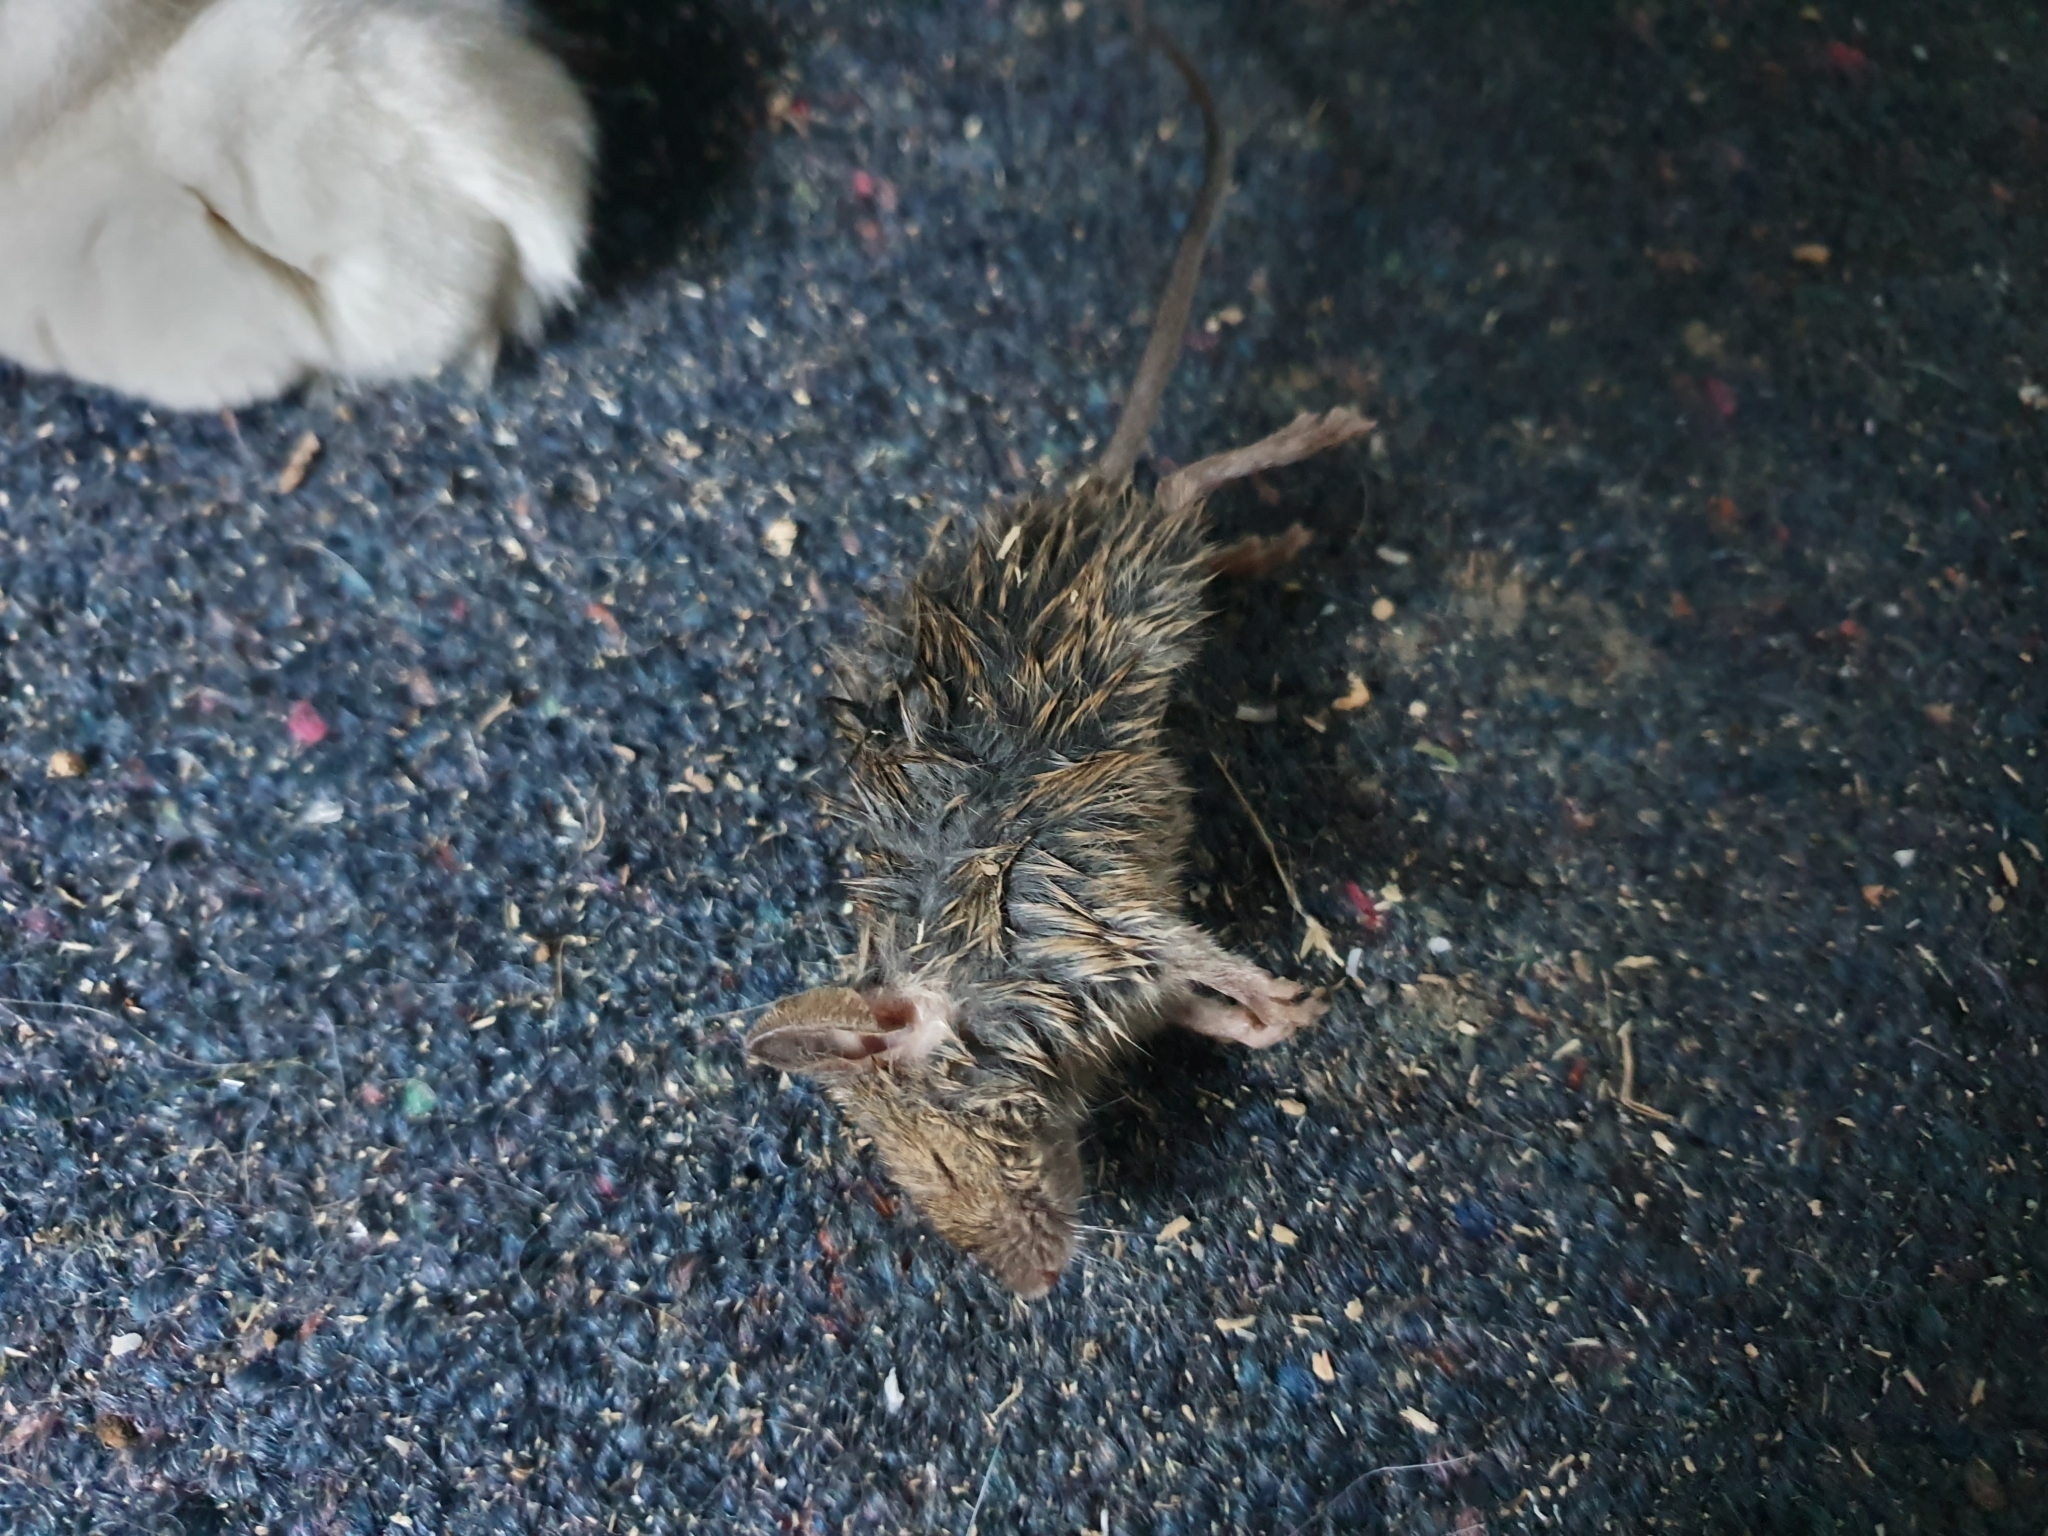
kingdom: Animalia
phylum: Chordata
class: Mammalia
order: Rodentia
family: Muridae
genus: Mus
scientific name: Mus musculus
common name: House mouse
